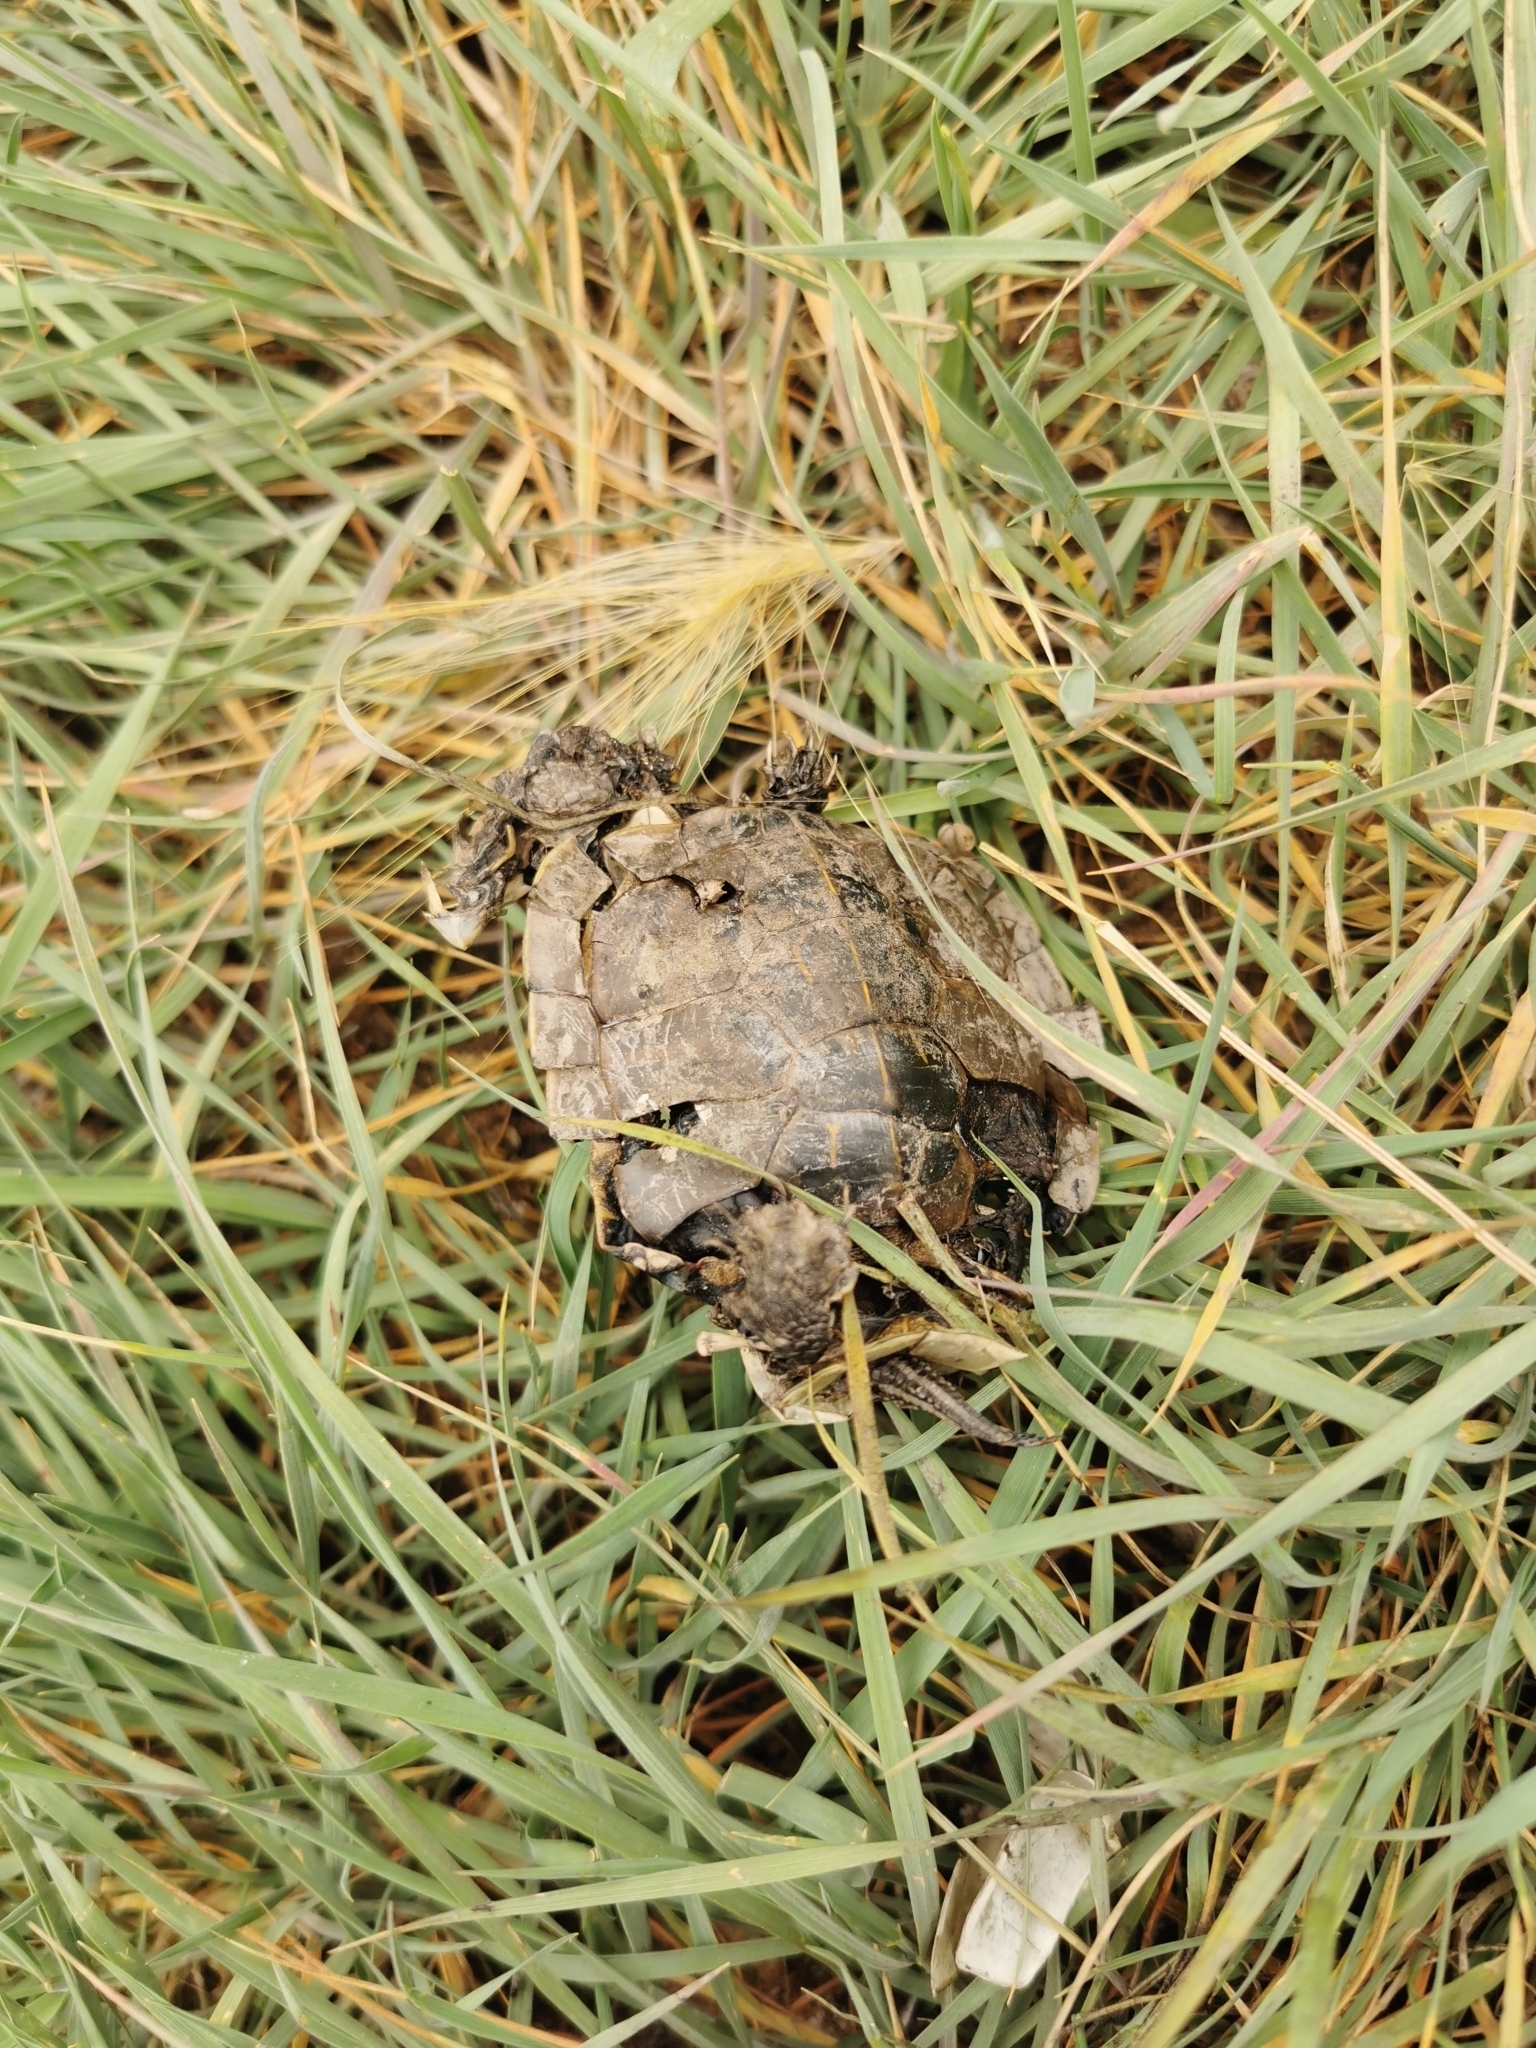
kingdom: Animalia
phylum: Chordata
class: Testudines
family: Emydidae
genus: Chrysemys
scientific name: Chrysemys picta
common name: Painted turtle
